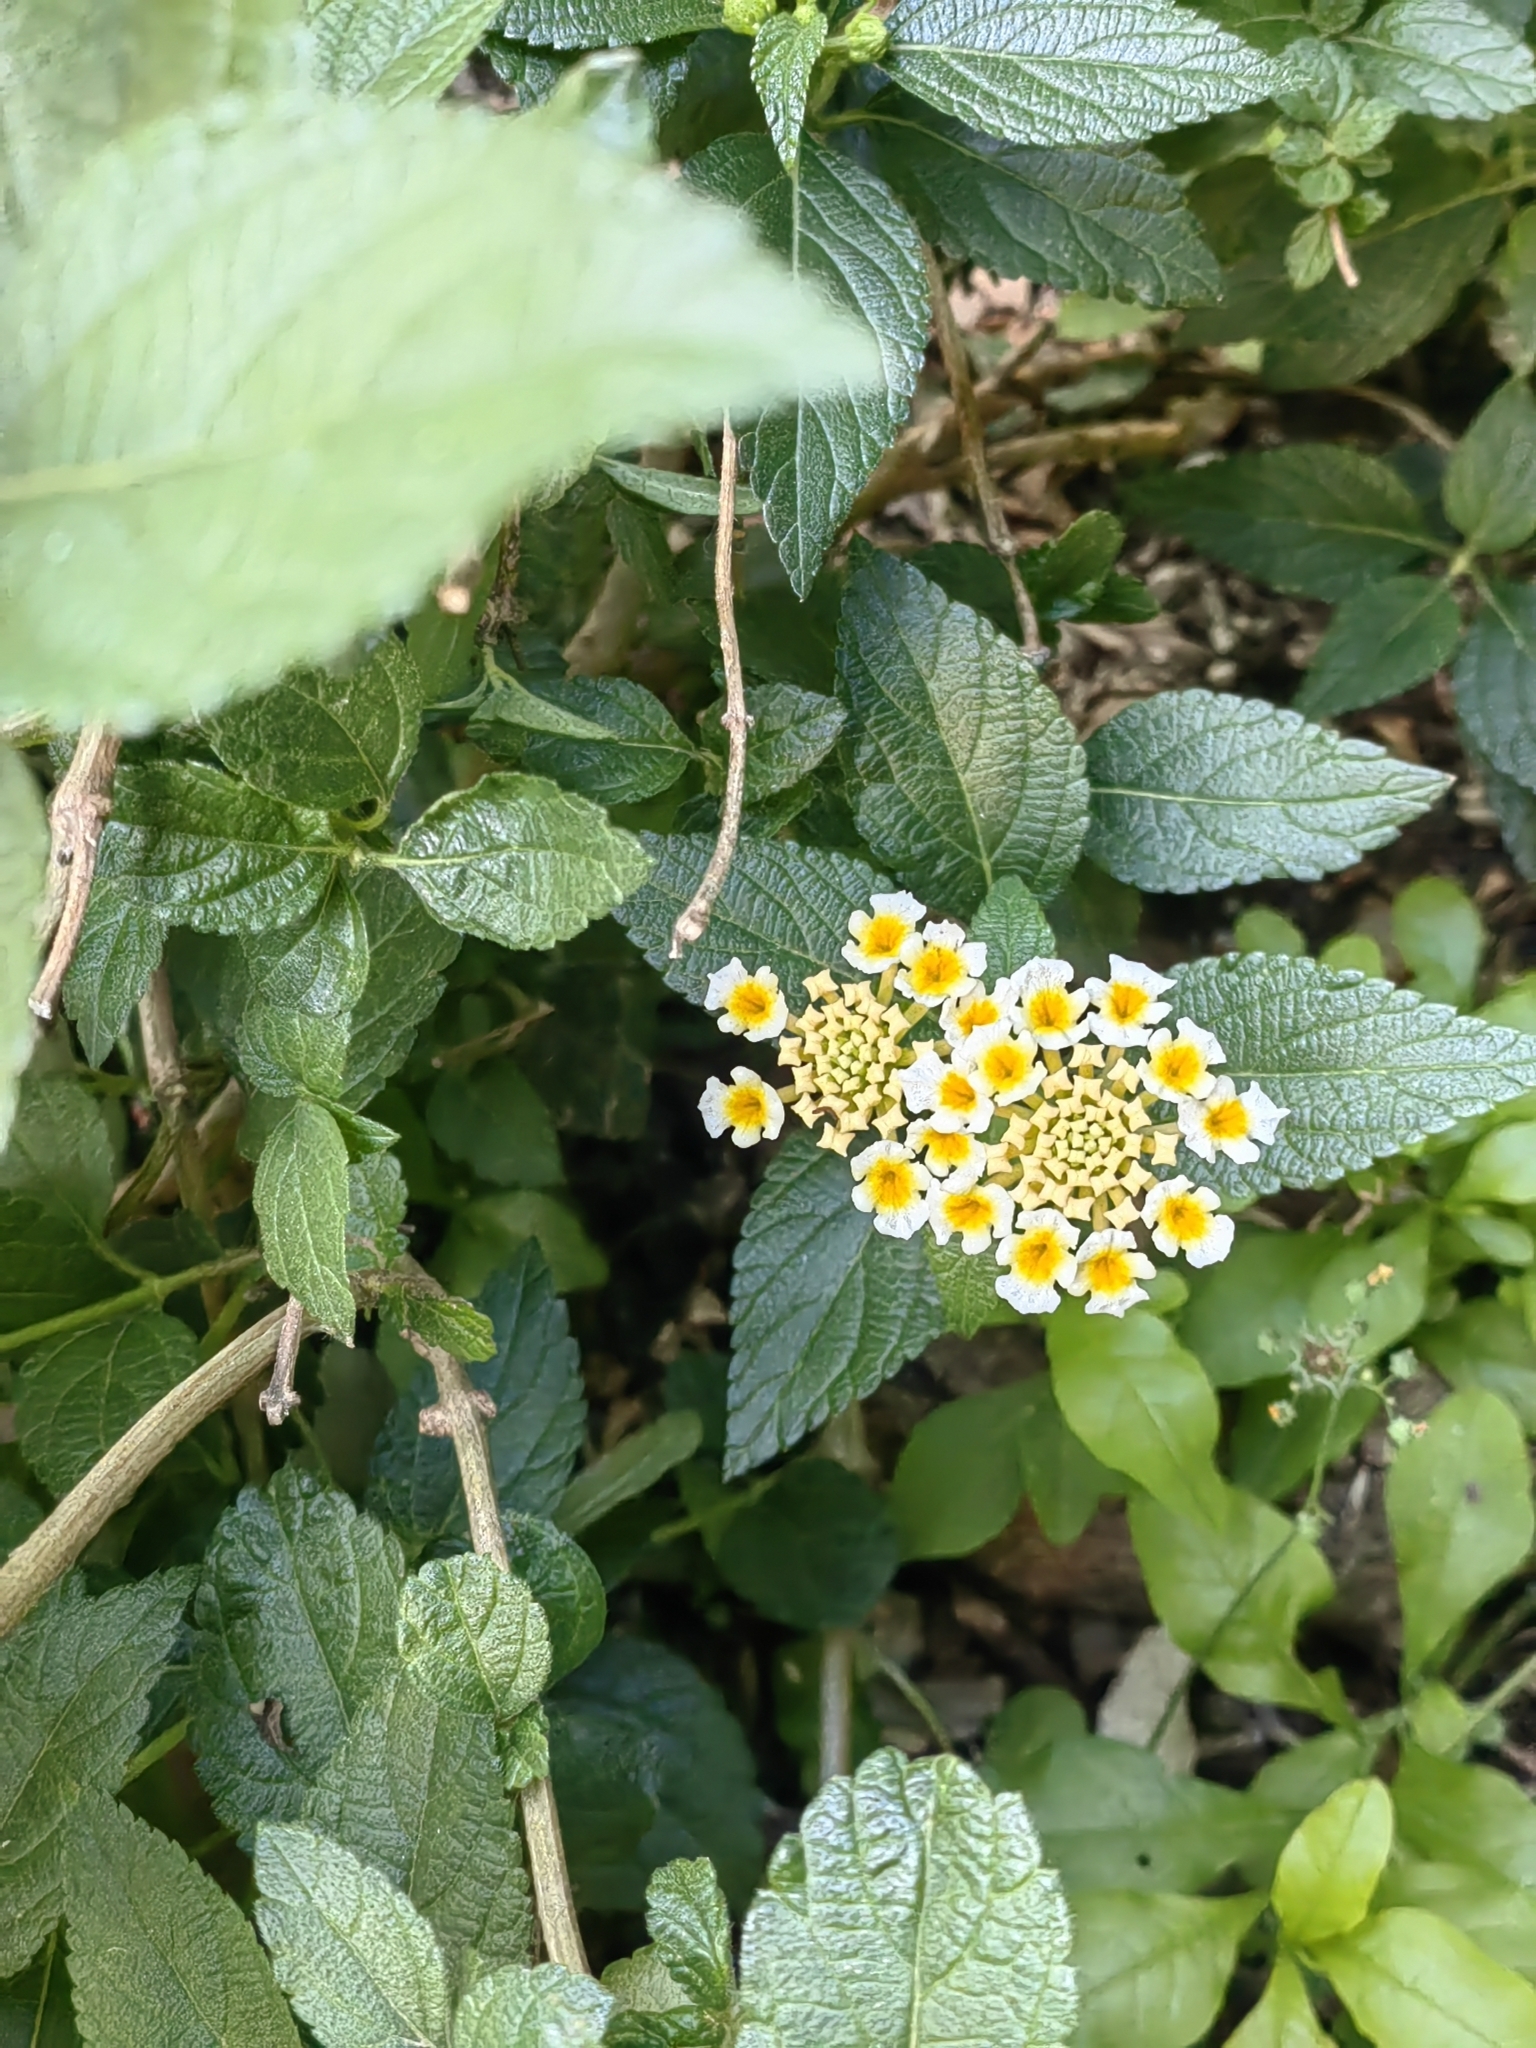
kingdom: Plantae
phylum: Tracheophyta
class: Magnoliopsida
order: Lamiales
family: Verbenaceae
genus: Lantana
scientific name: Lantana camara
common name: Lantana
